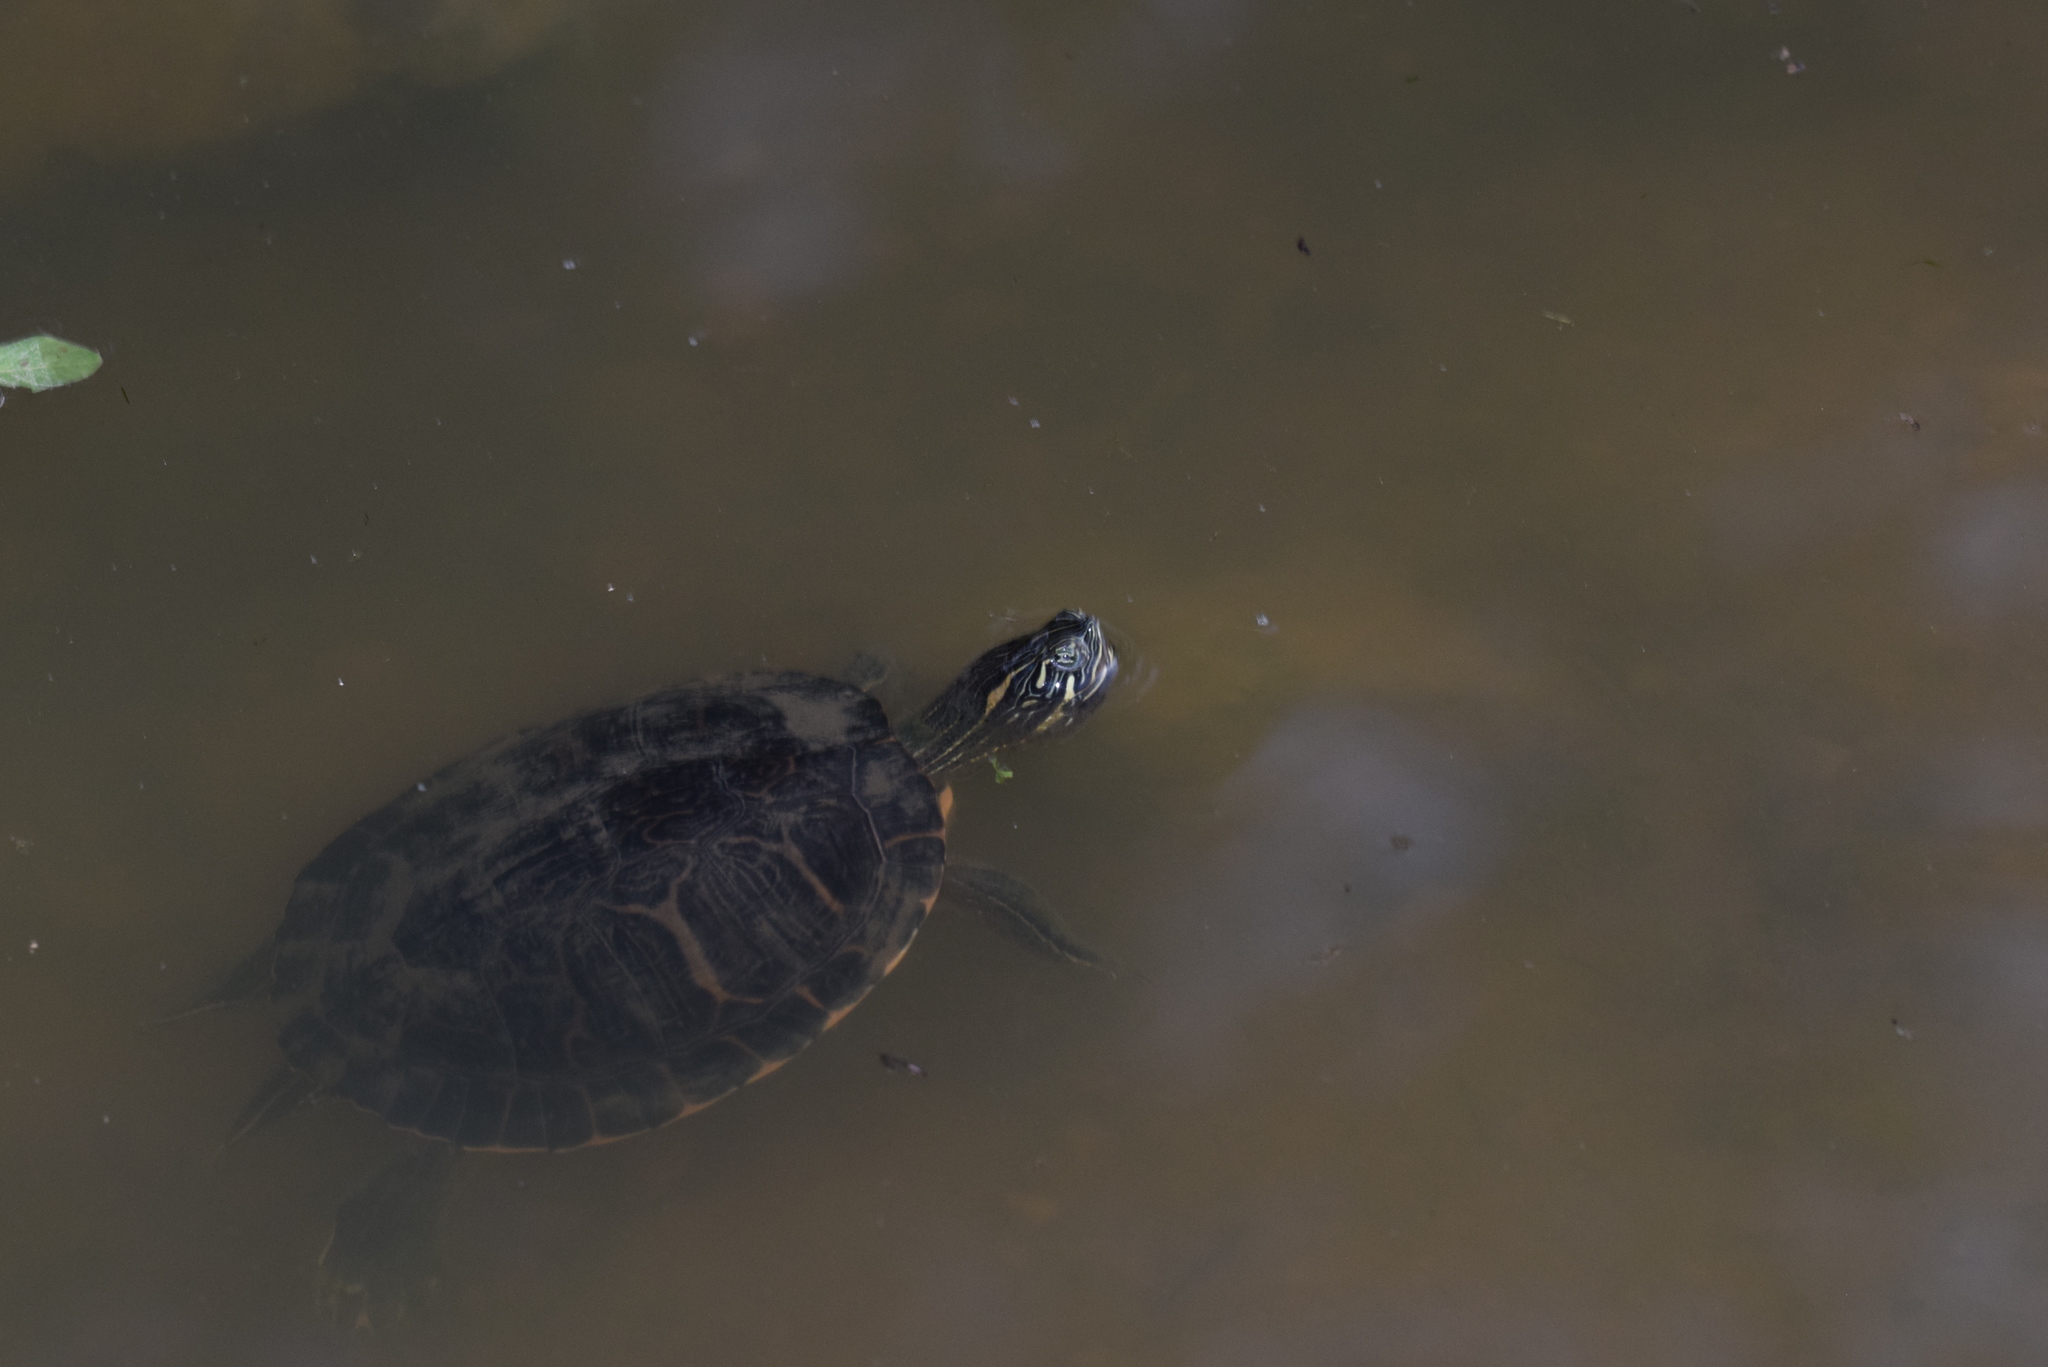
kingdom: Animalia
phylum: Chordata
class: Testudines
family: Emydidae
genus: Pseudemys
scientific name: Pseudemys concinna
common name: Eastern river cooter
